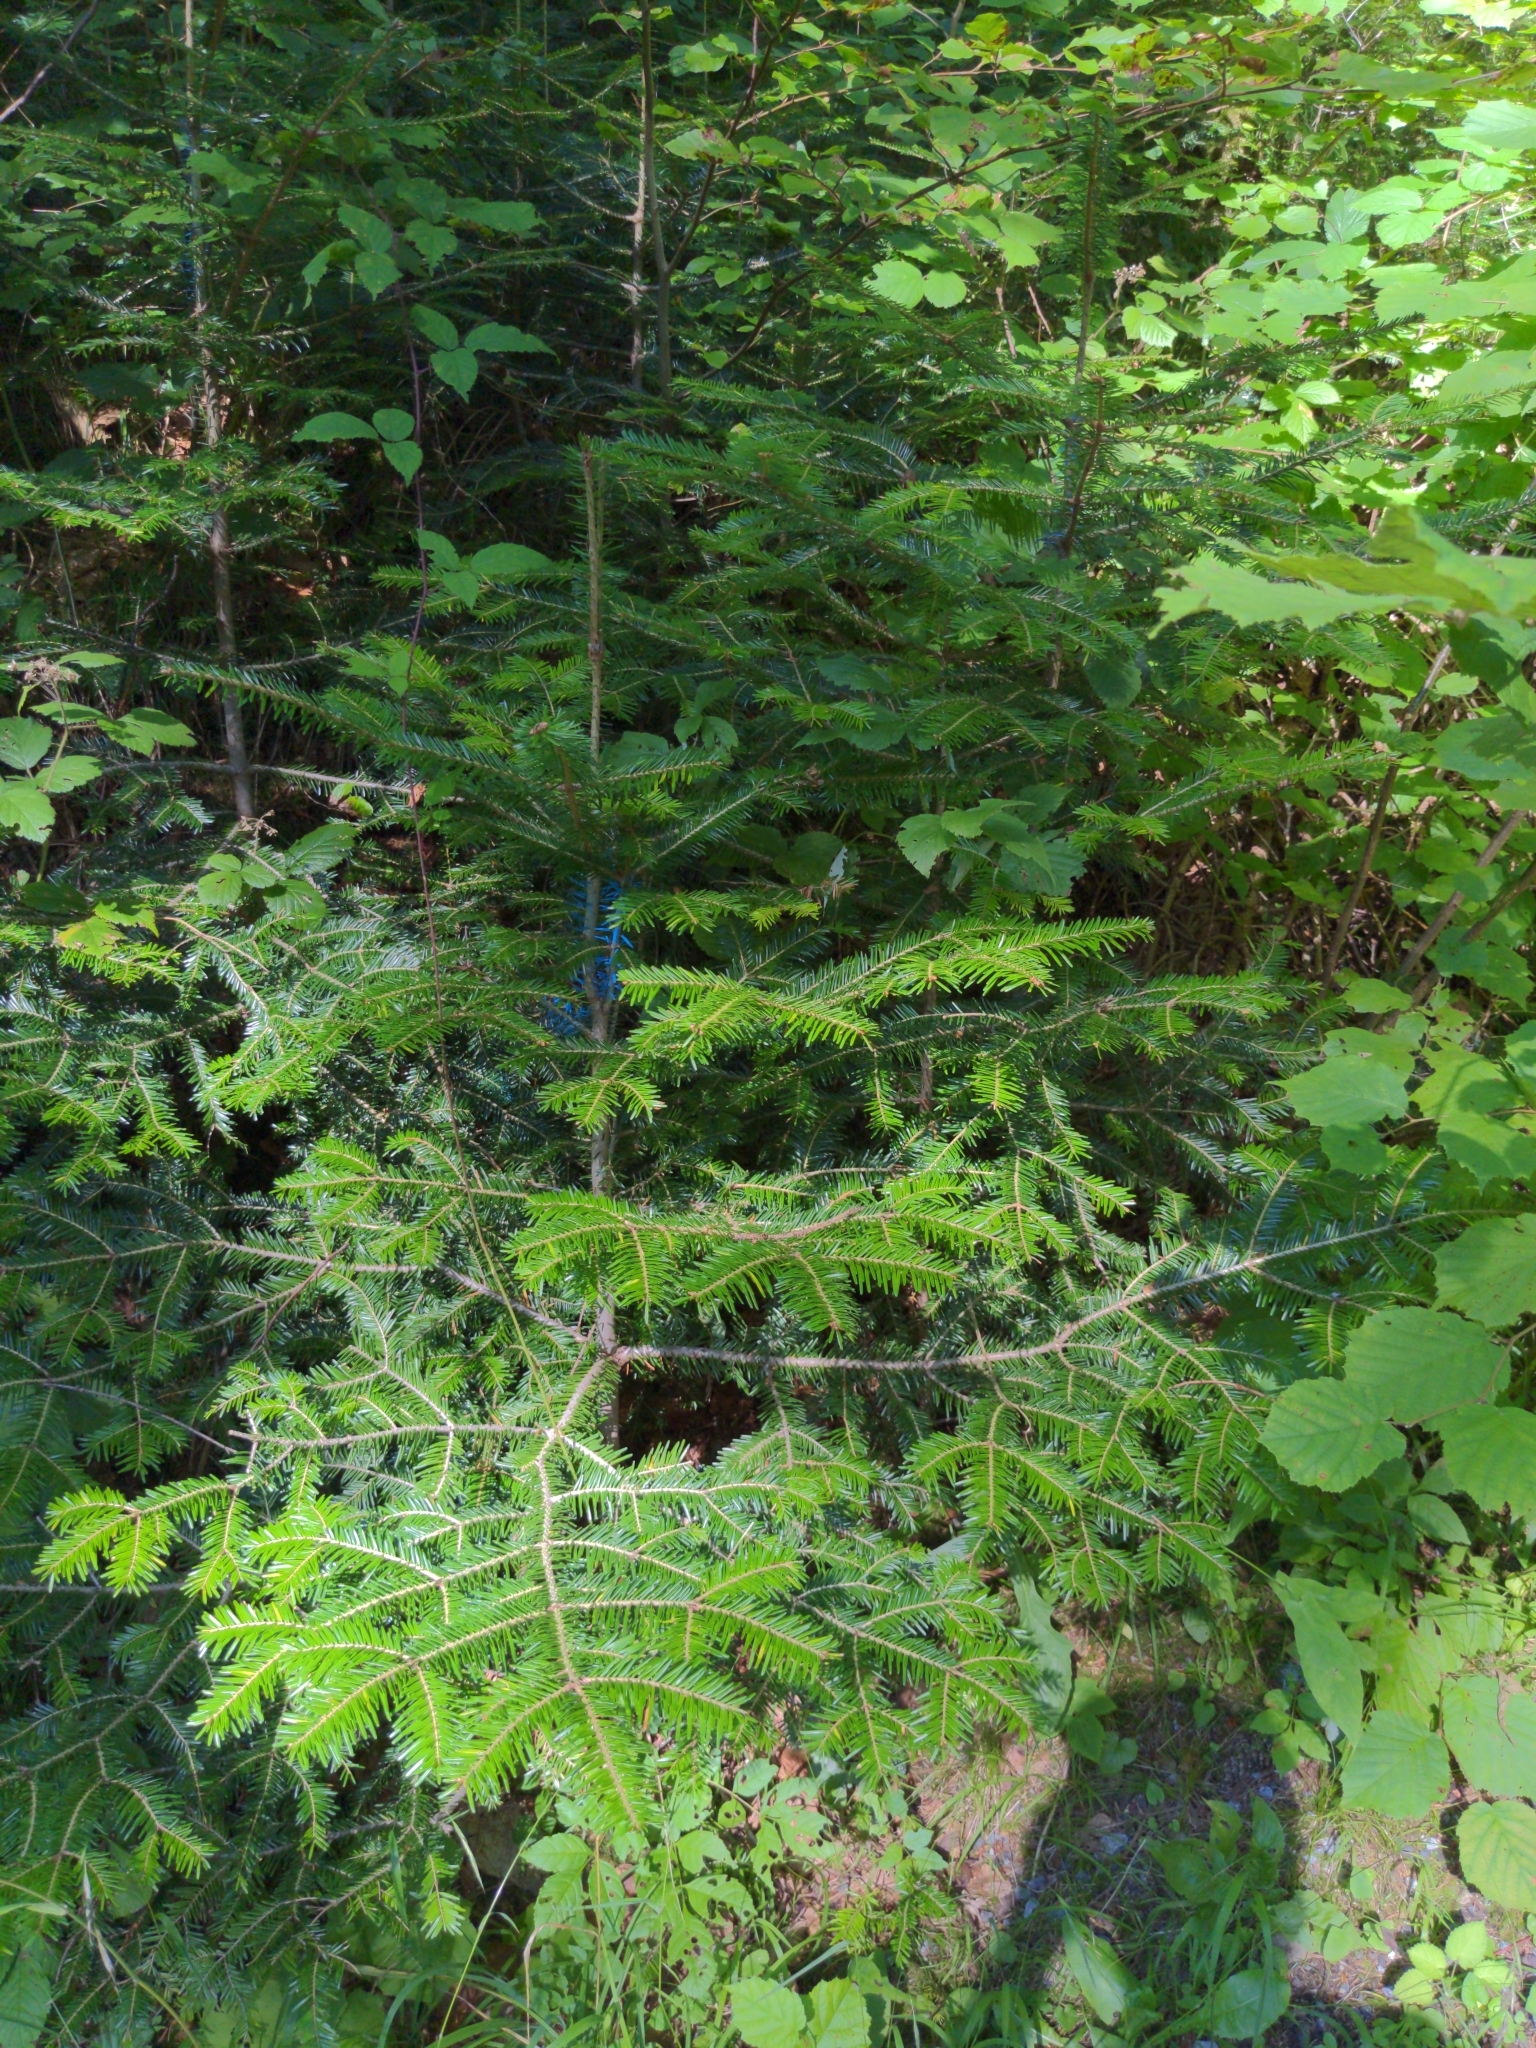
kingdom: Plantae
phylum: Tracheophyta
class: Pinopsida
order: Pinales
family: Pinaceae
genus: Abies
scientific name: Abies alba
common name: Silver fir
